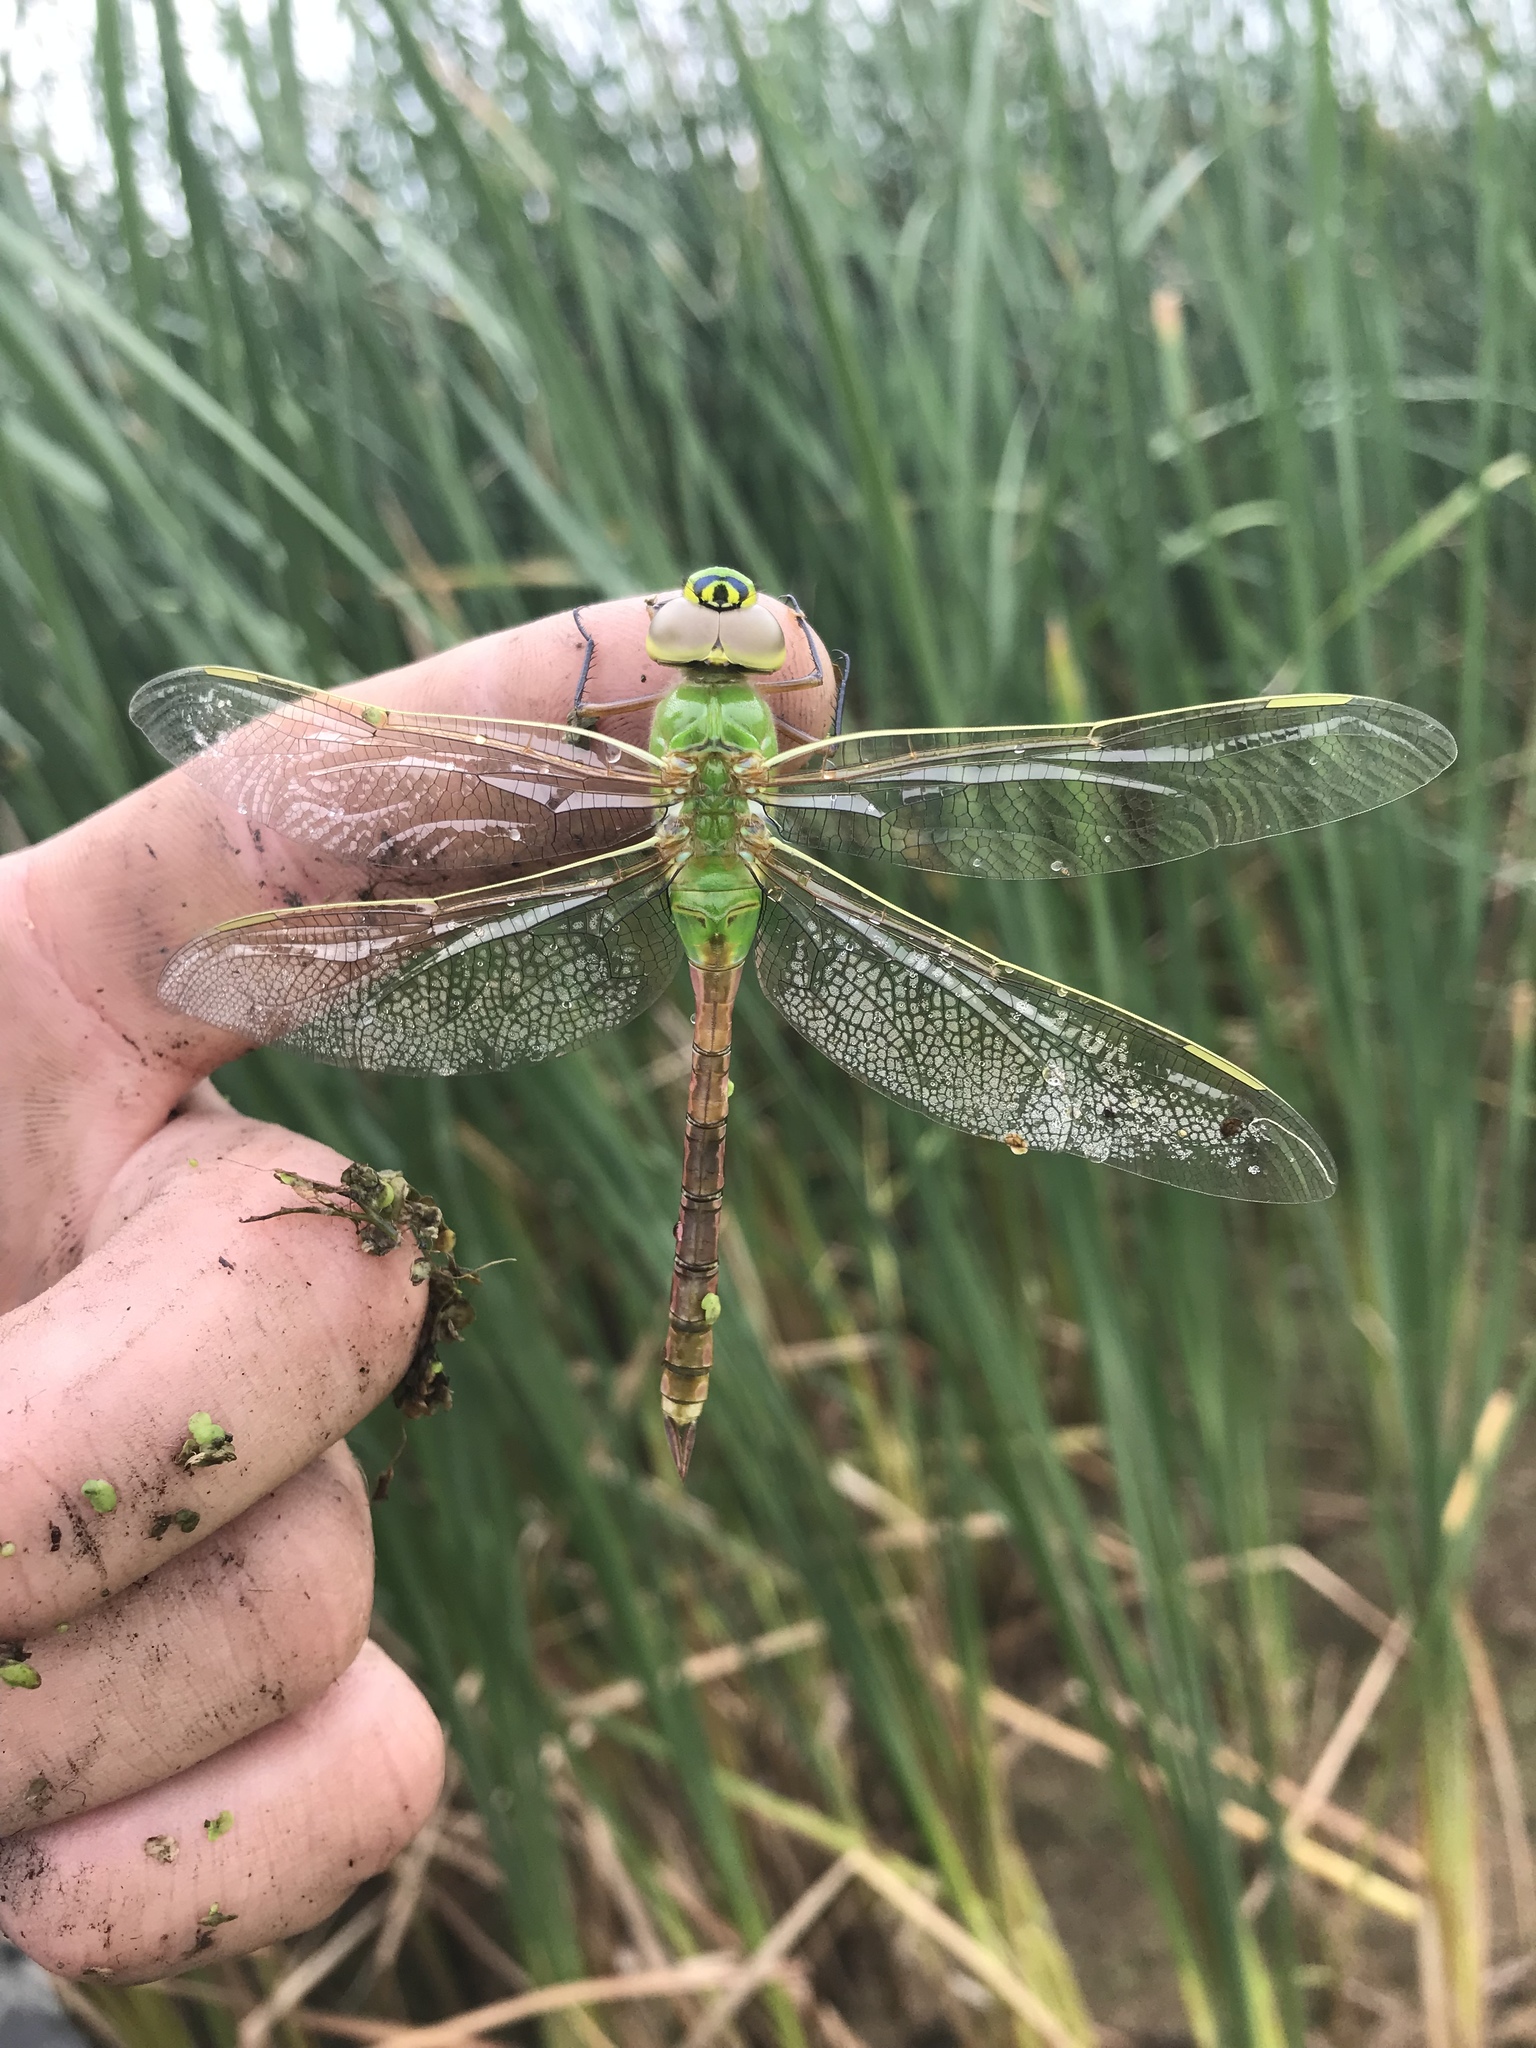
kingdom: Animalia
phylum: Arthropoda
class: Insecta
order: Odonata
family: Aeshnidae
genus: Anax
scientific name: Anax junius
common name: Common green darner
